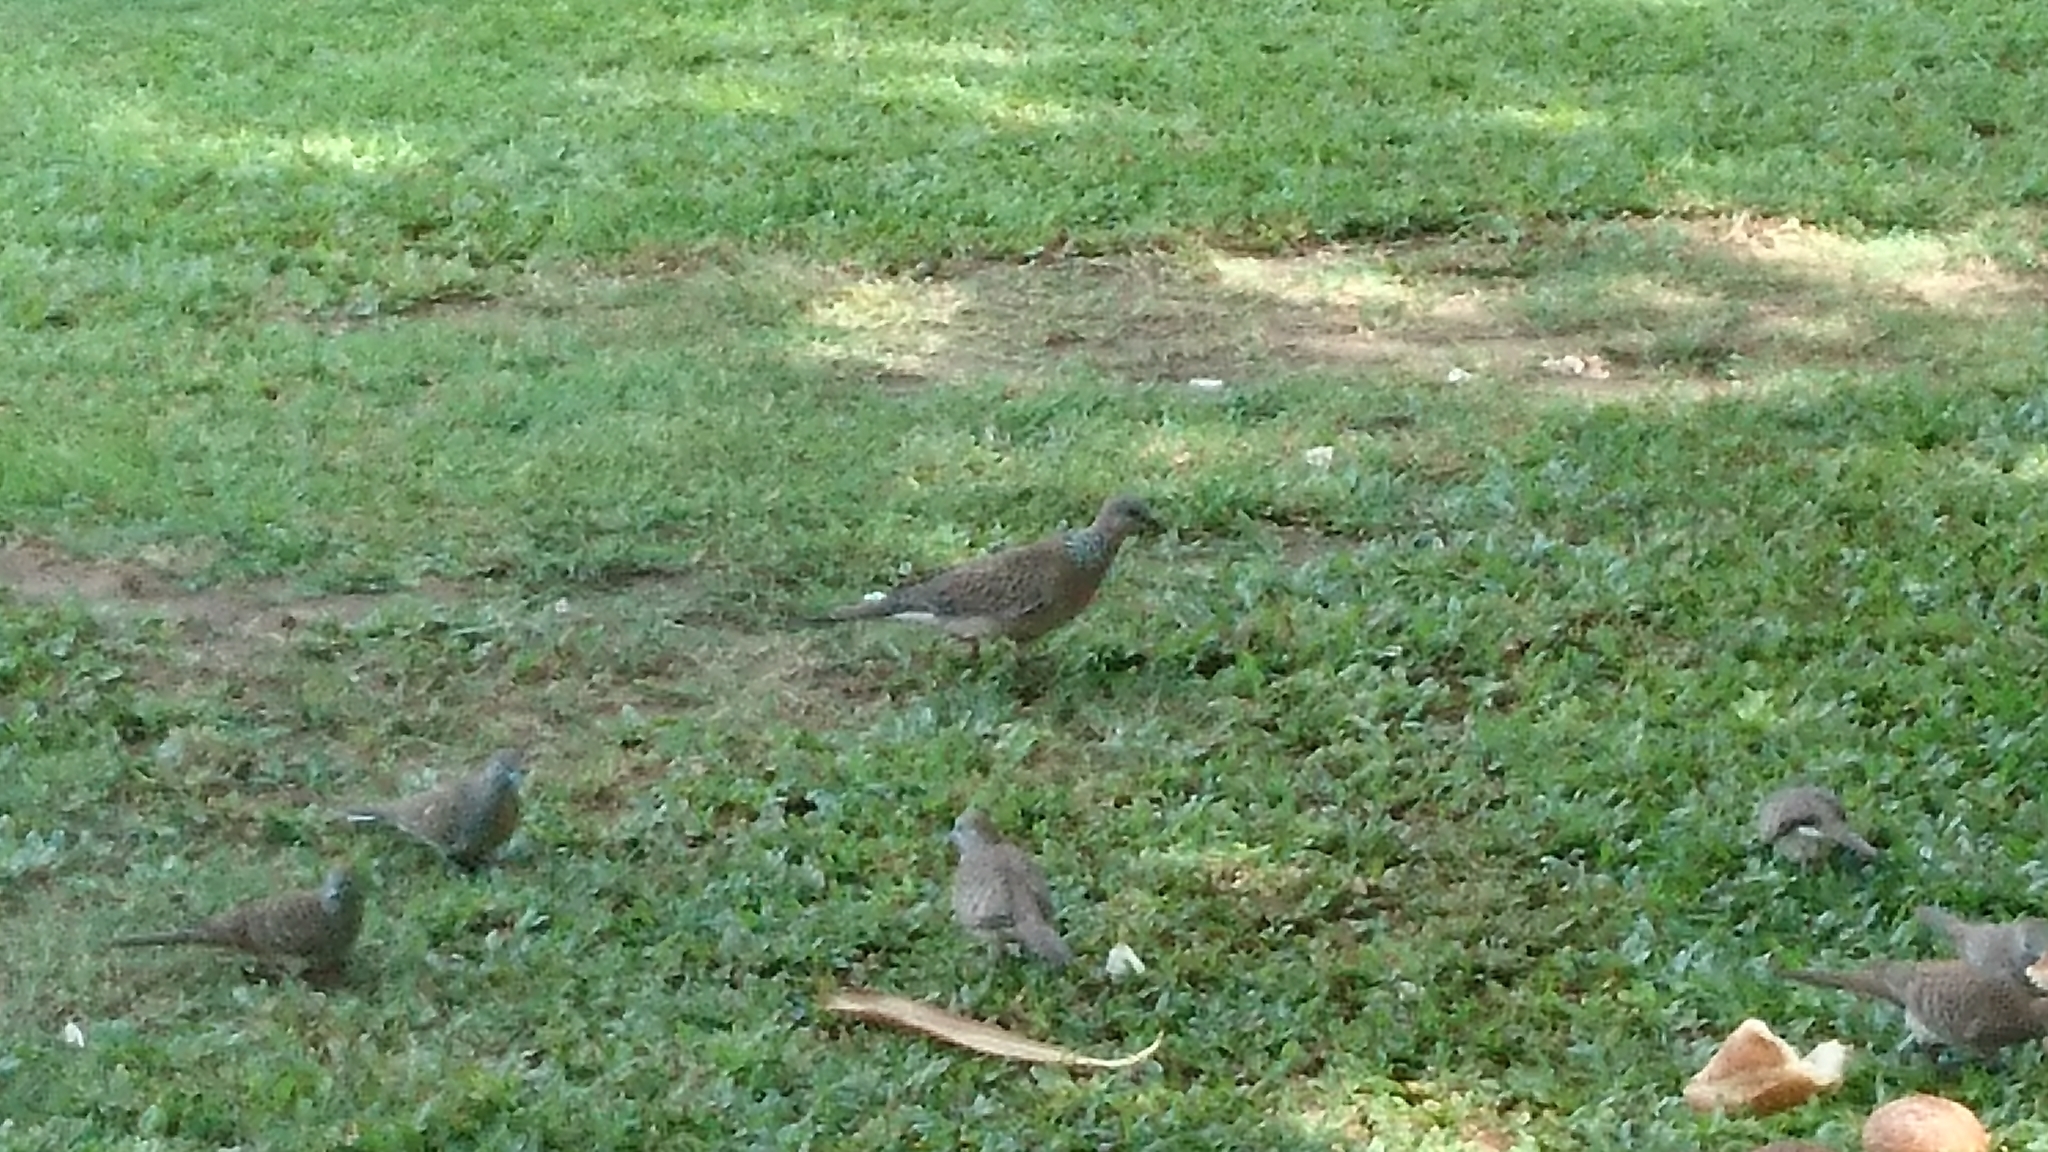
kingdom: Animalia
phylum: Chordata
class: Aves
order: Columbiformes
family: Columbidae
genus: Spilopelia
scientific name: Spilopelia chinensis
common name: Spotted dove
